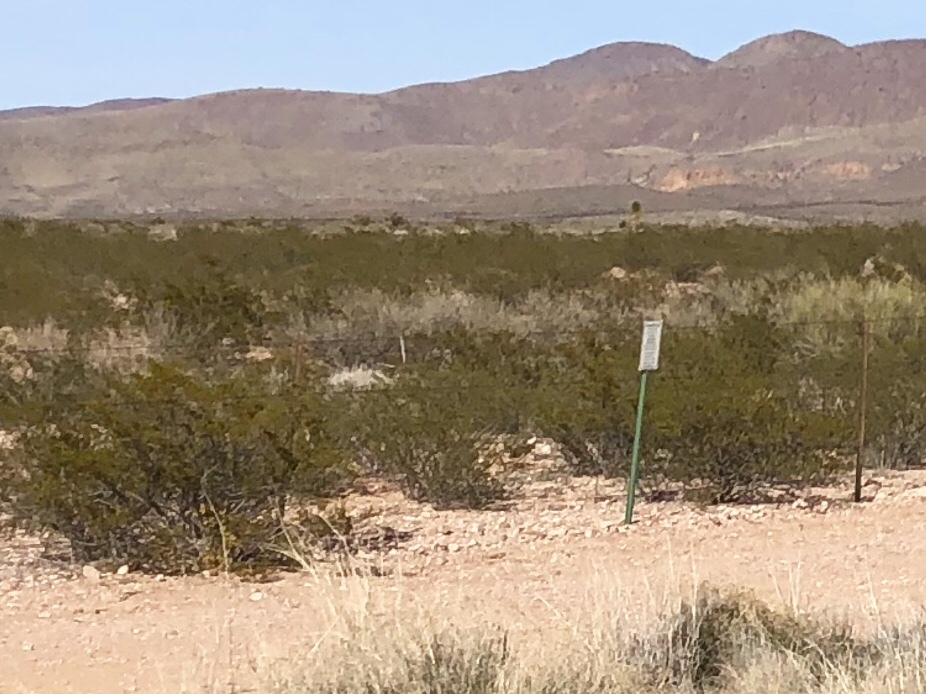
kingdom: Plantae
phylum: Tracheophyta
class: Magnoliopsida
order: Zygophyllales
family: Zygophyllaceae
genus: Larrea
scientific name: Larrea tridentata
